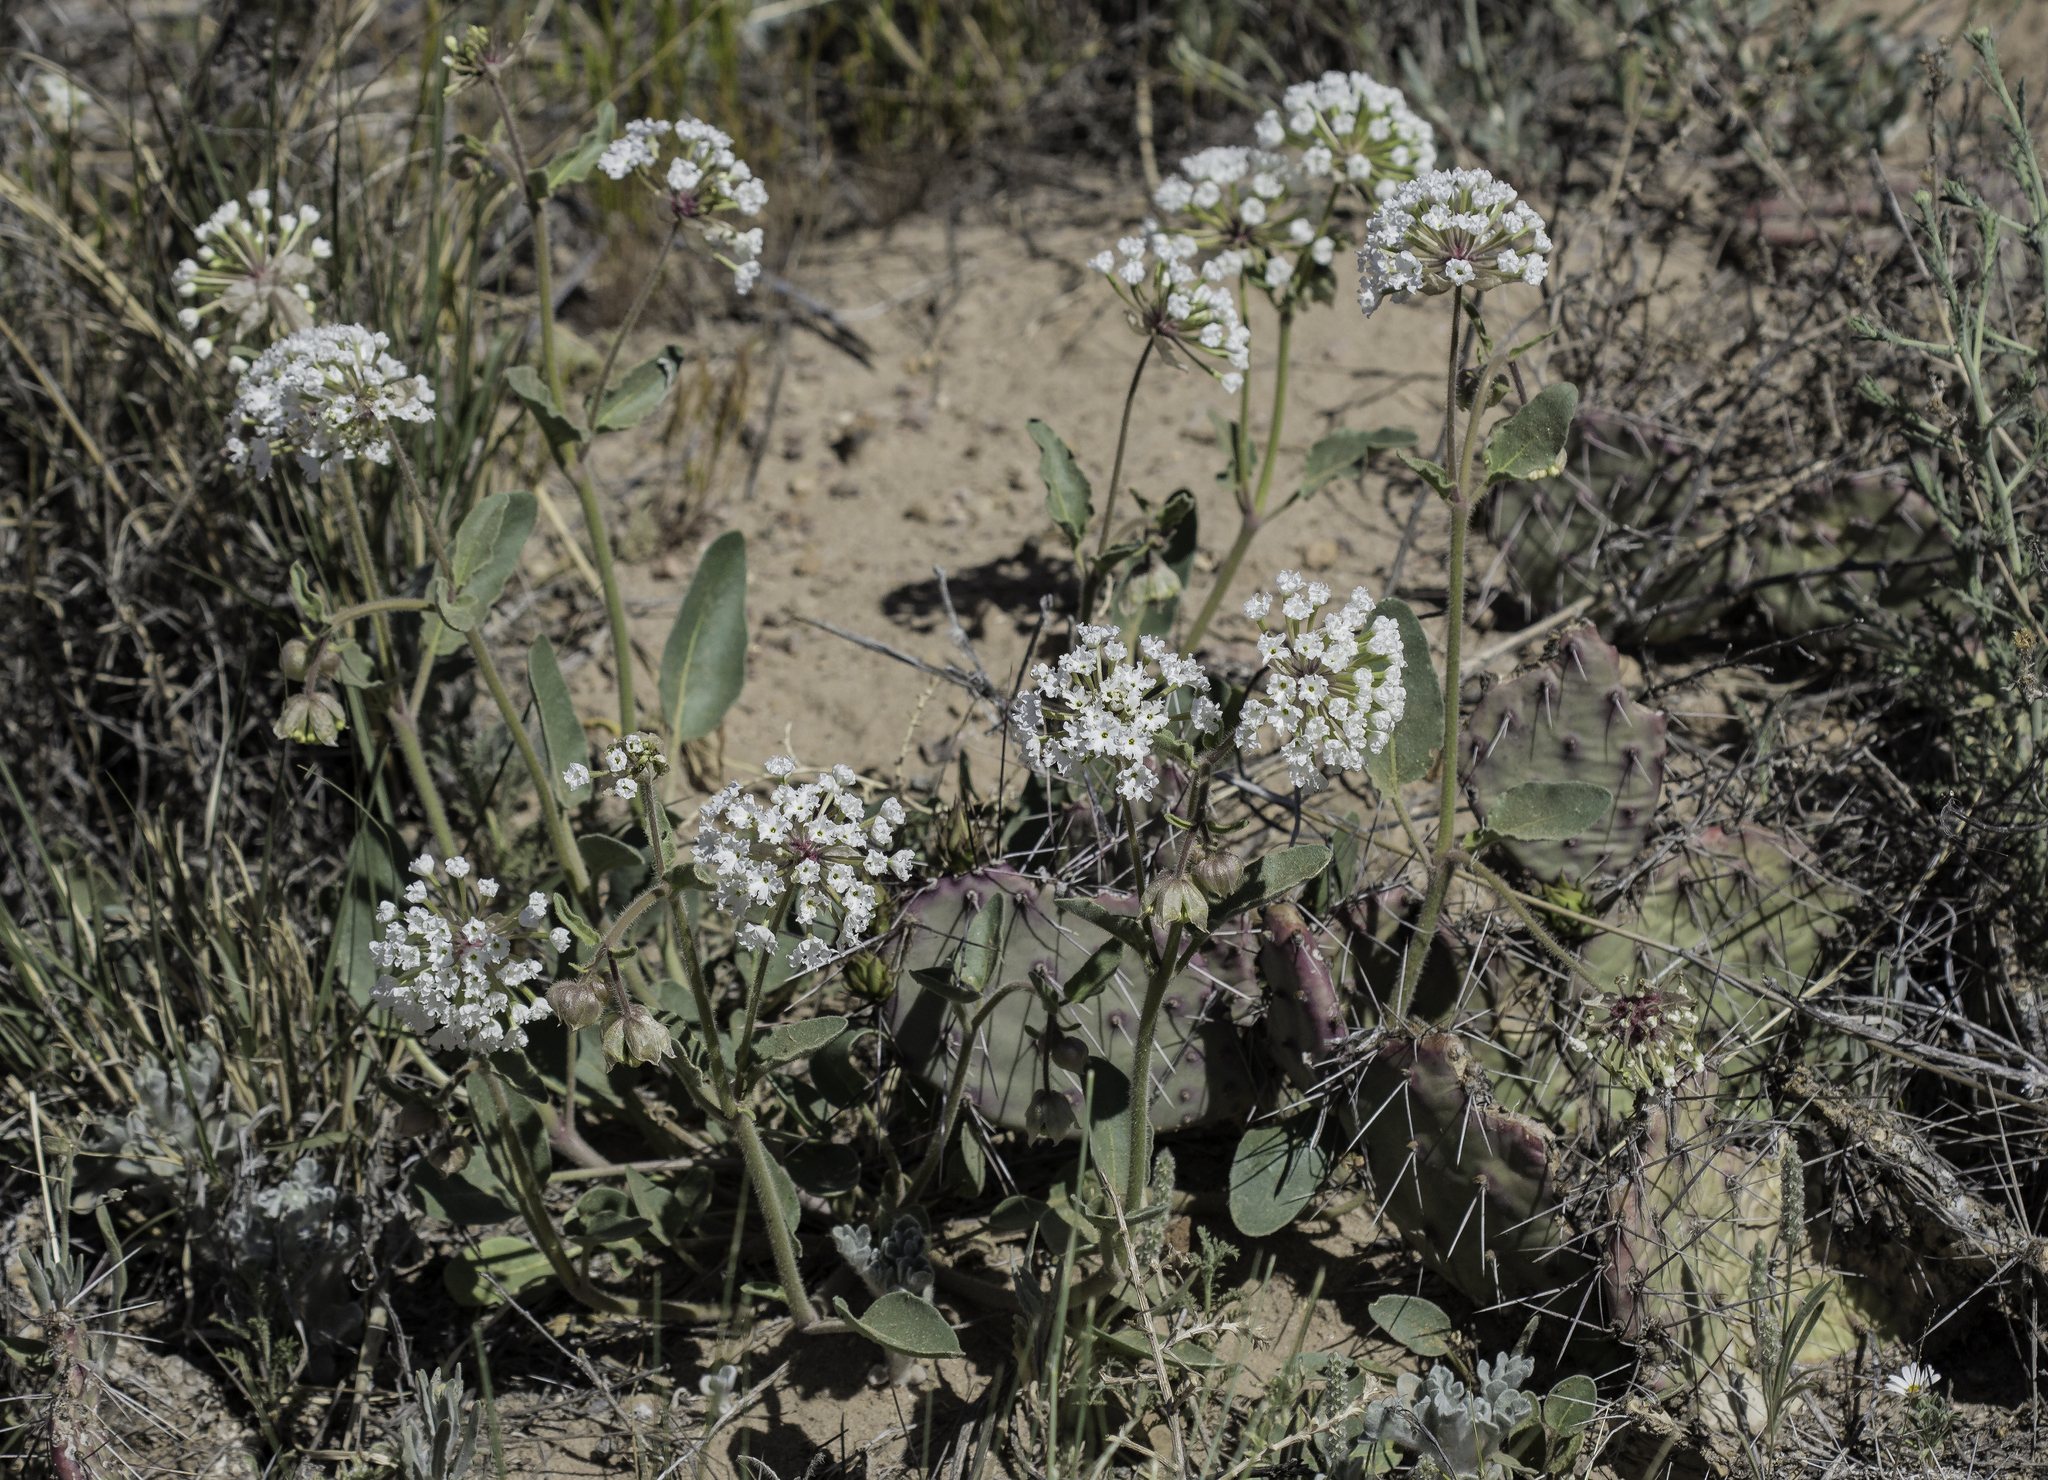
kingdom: Plantae
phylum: Tracheophyta
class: Magnoliopsida
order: Caryophyllales
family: Nyctaginaceae
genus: Abronia
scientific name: Abronia fragrans
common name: Fragrant sand-verbena
